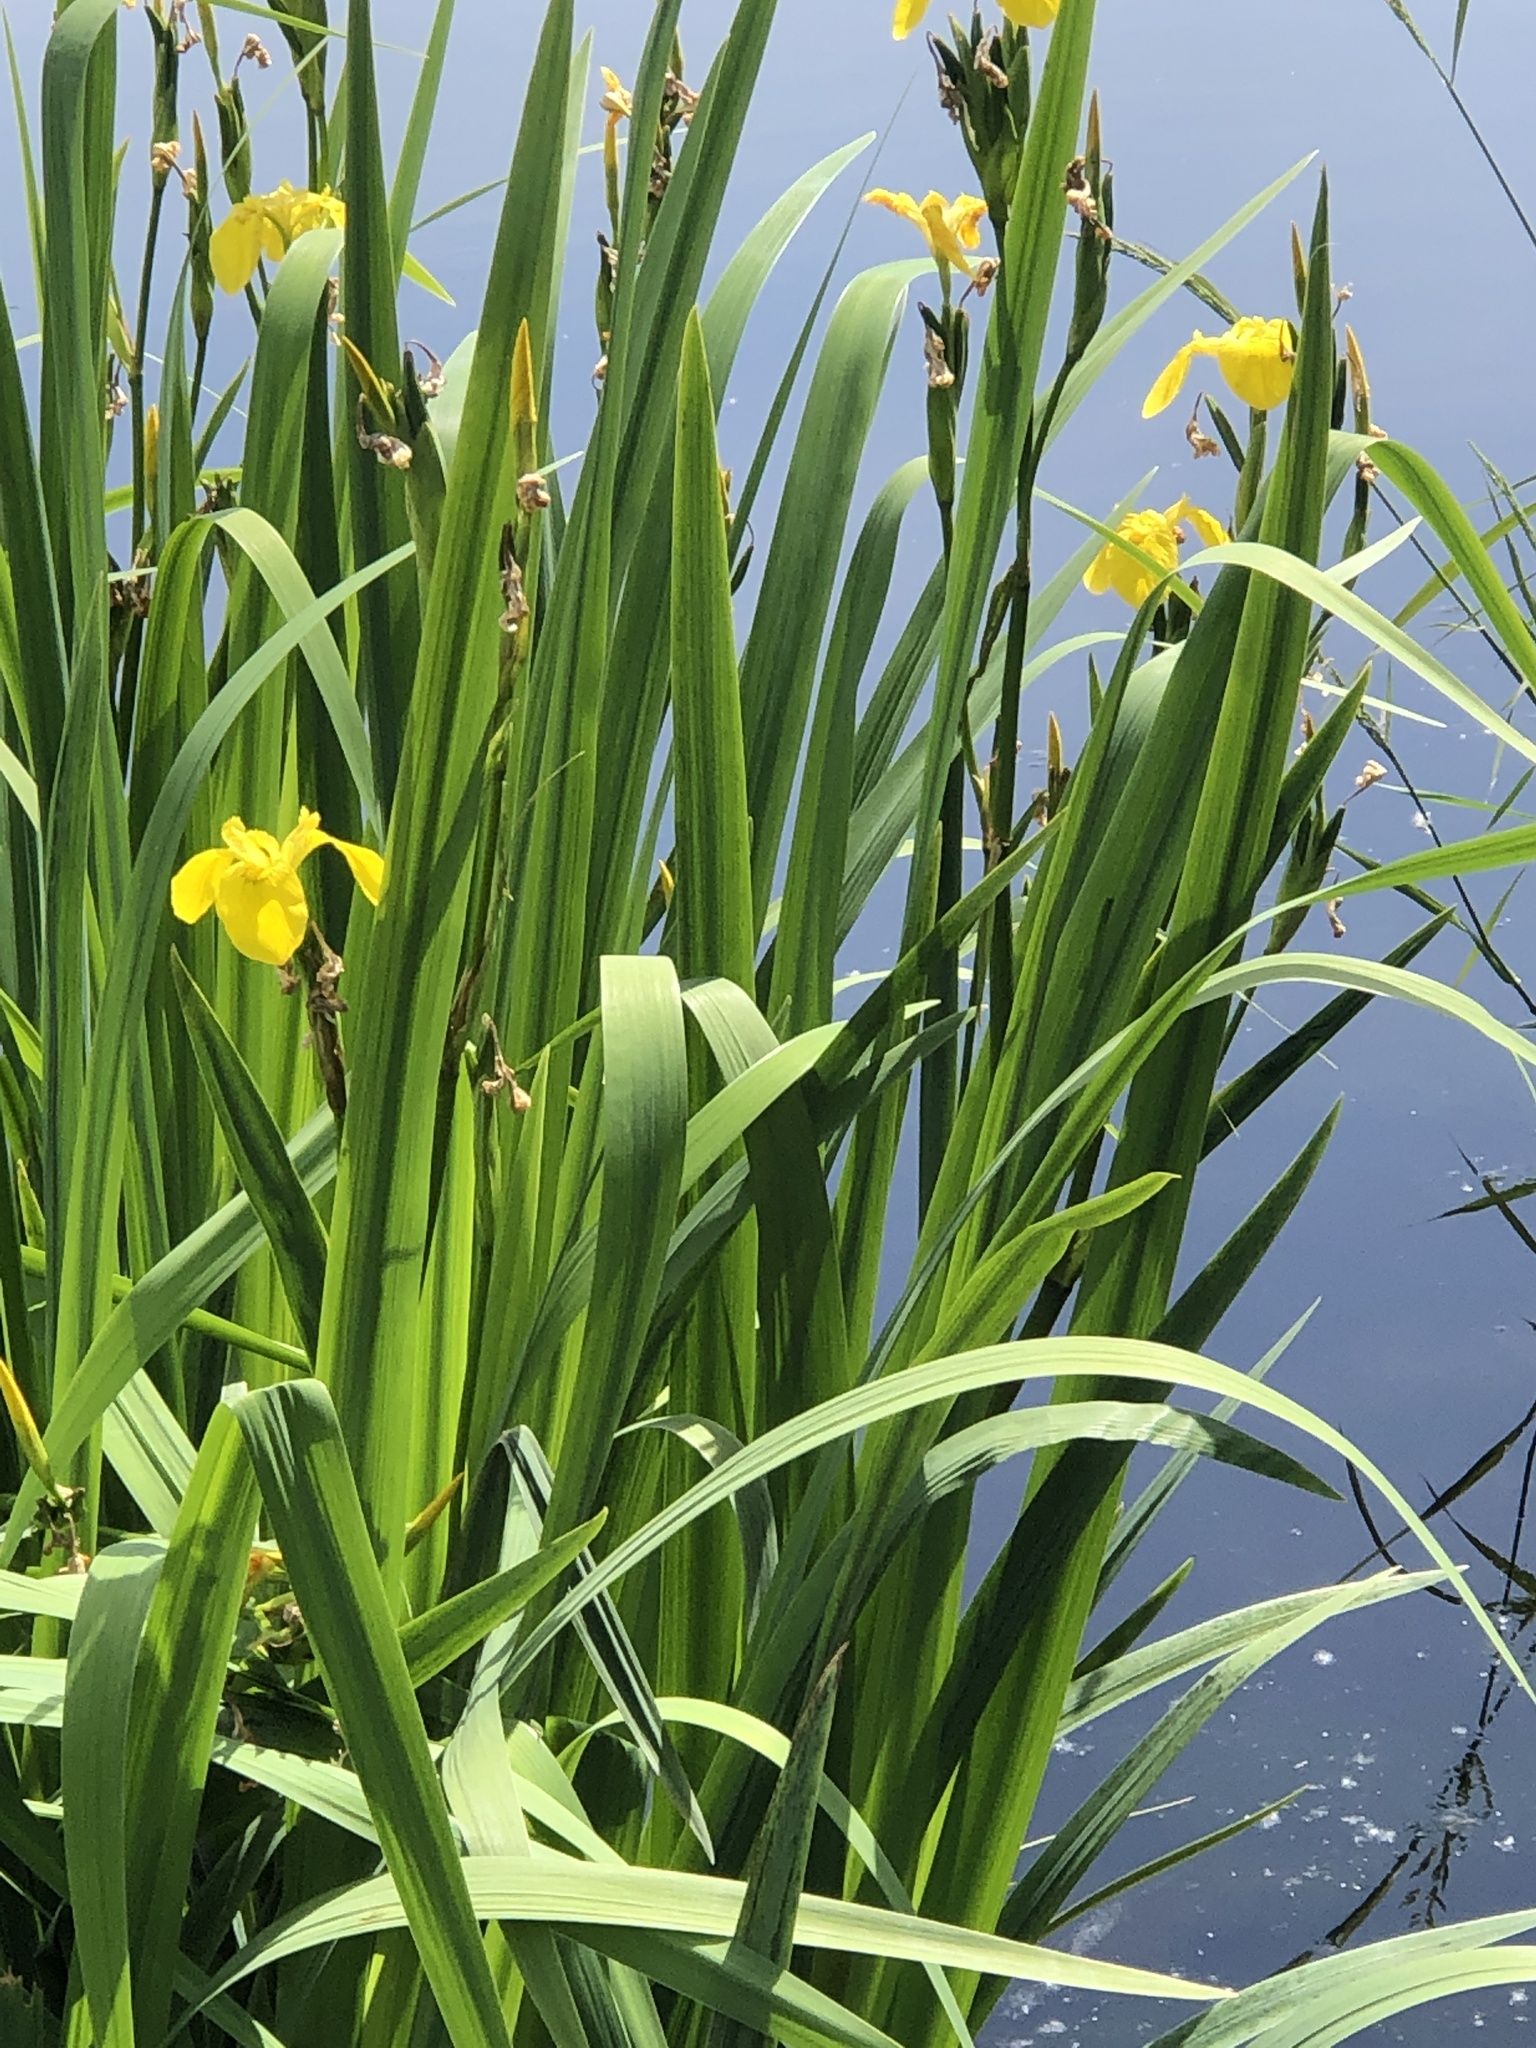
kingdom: Plantae
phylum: Tracheophyta
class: Liliopsida
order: Asparagales
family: Iridaceae
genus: Iris
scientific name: Iris pseudacorus
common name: Yellow flag
